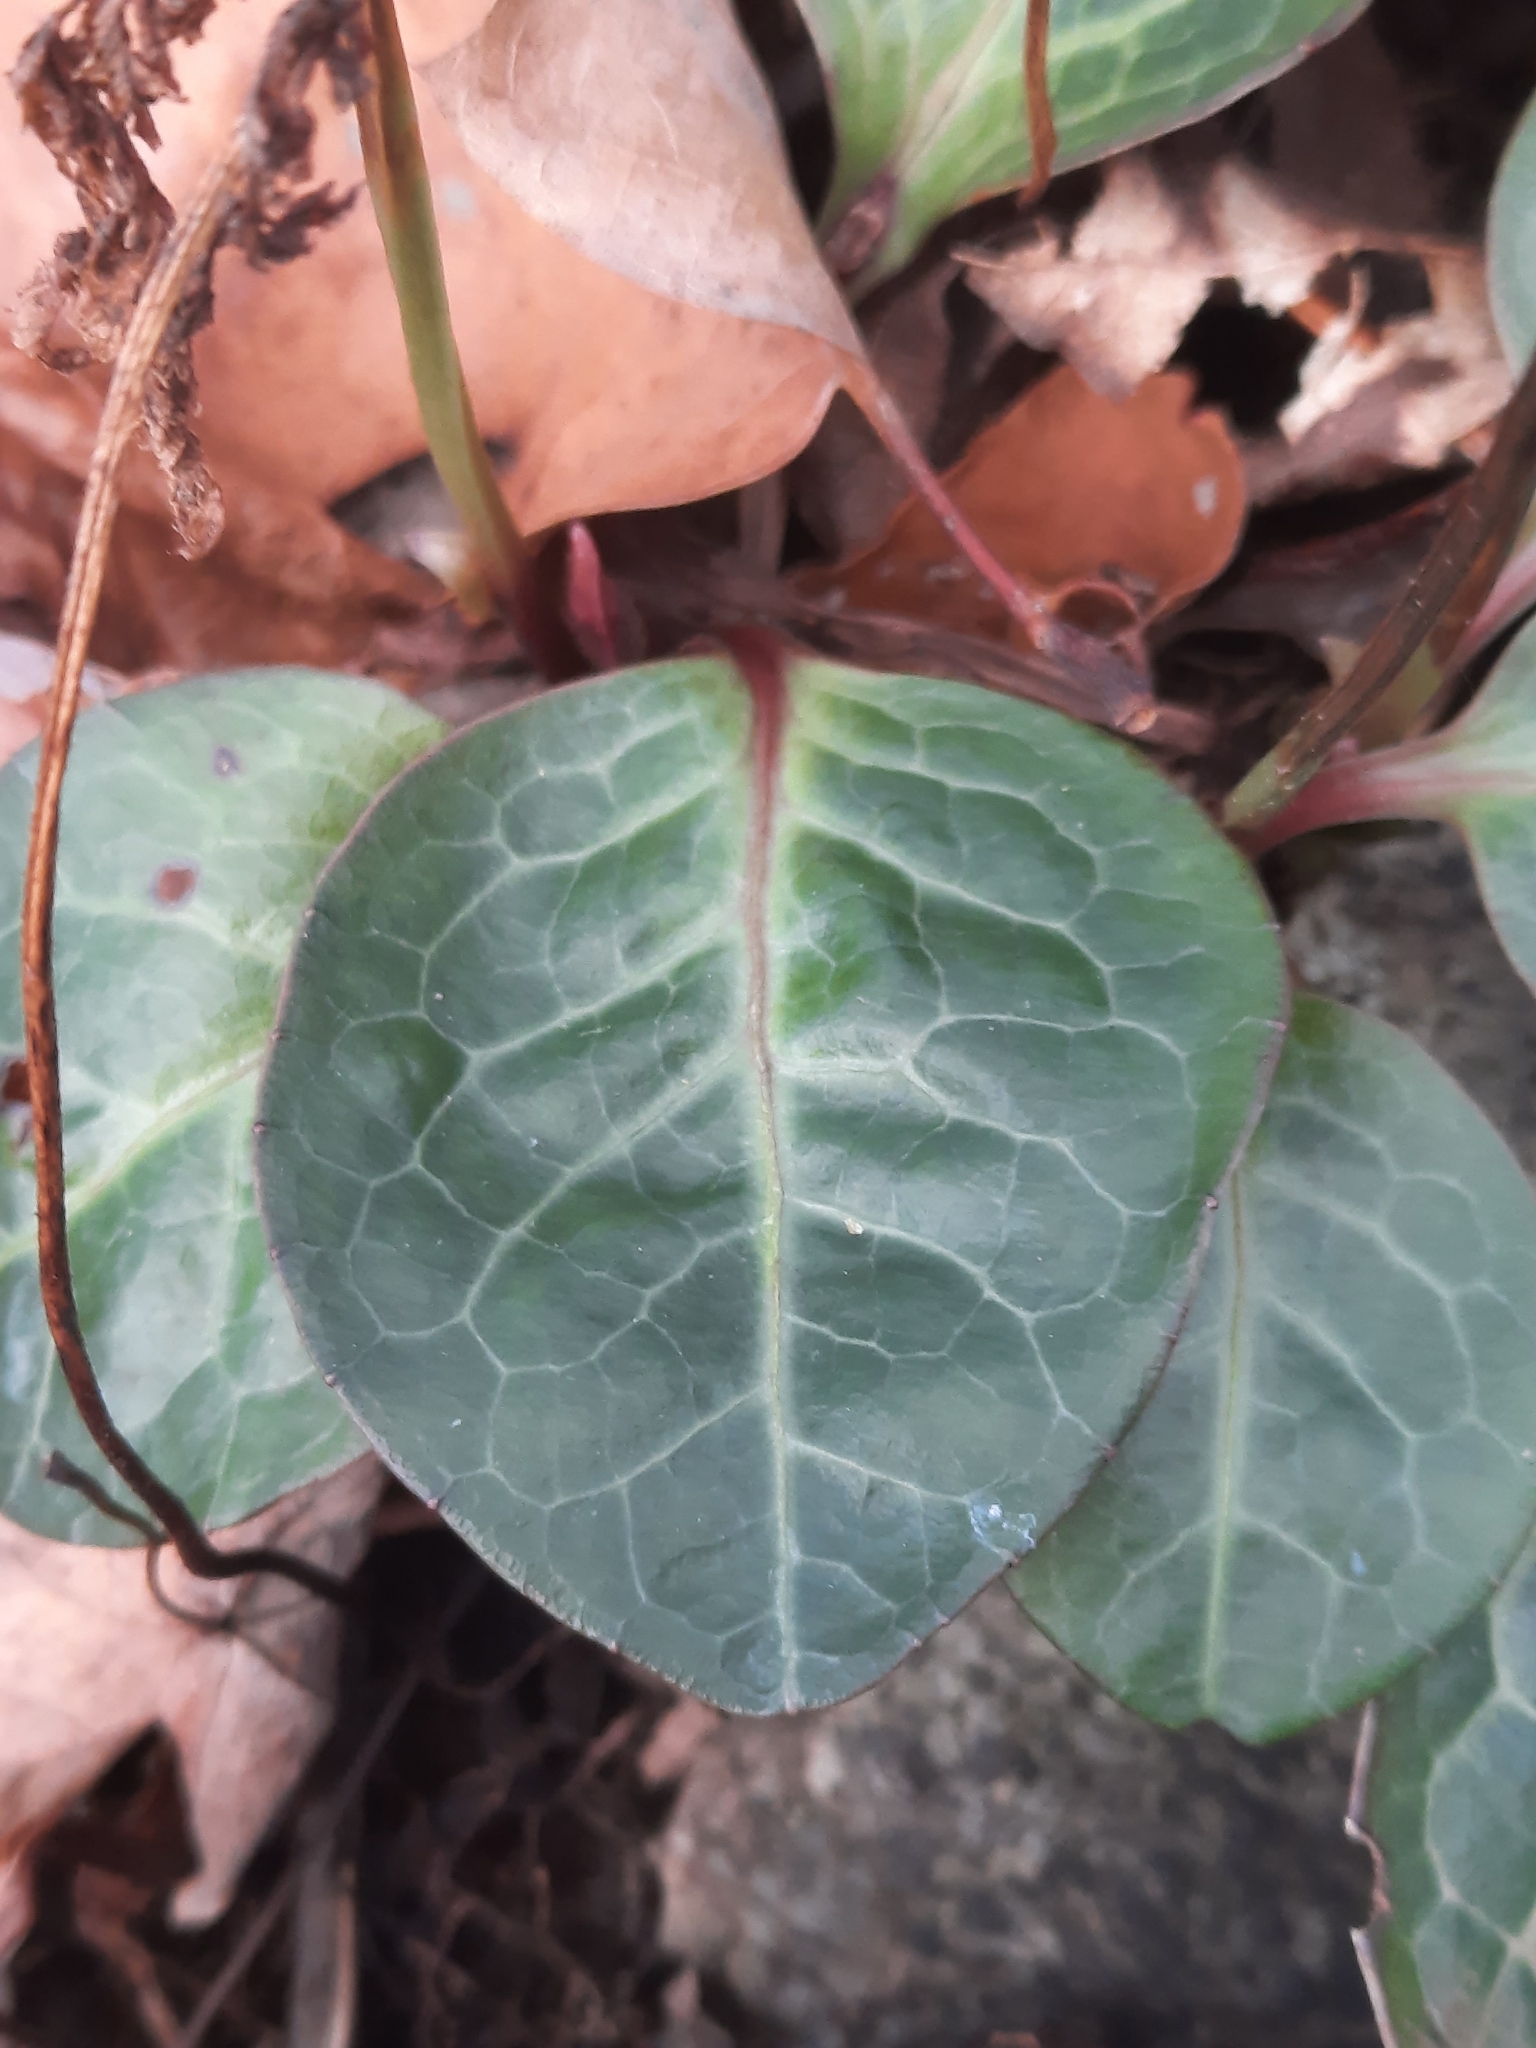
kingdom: Plantae
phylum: Tracheophyta
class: Magnoliopsida
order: Ericales
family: Ericaceae
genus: Pyrola
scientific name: Pyrola americana
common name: American wintergreen
